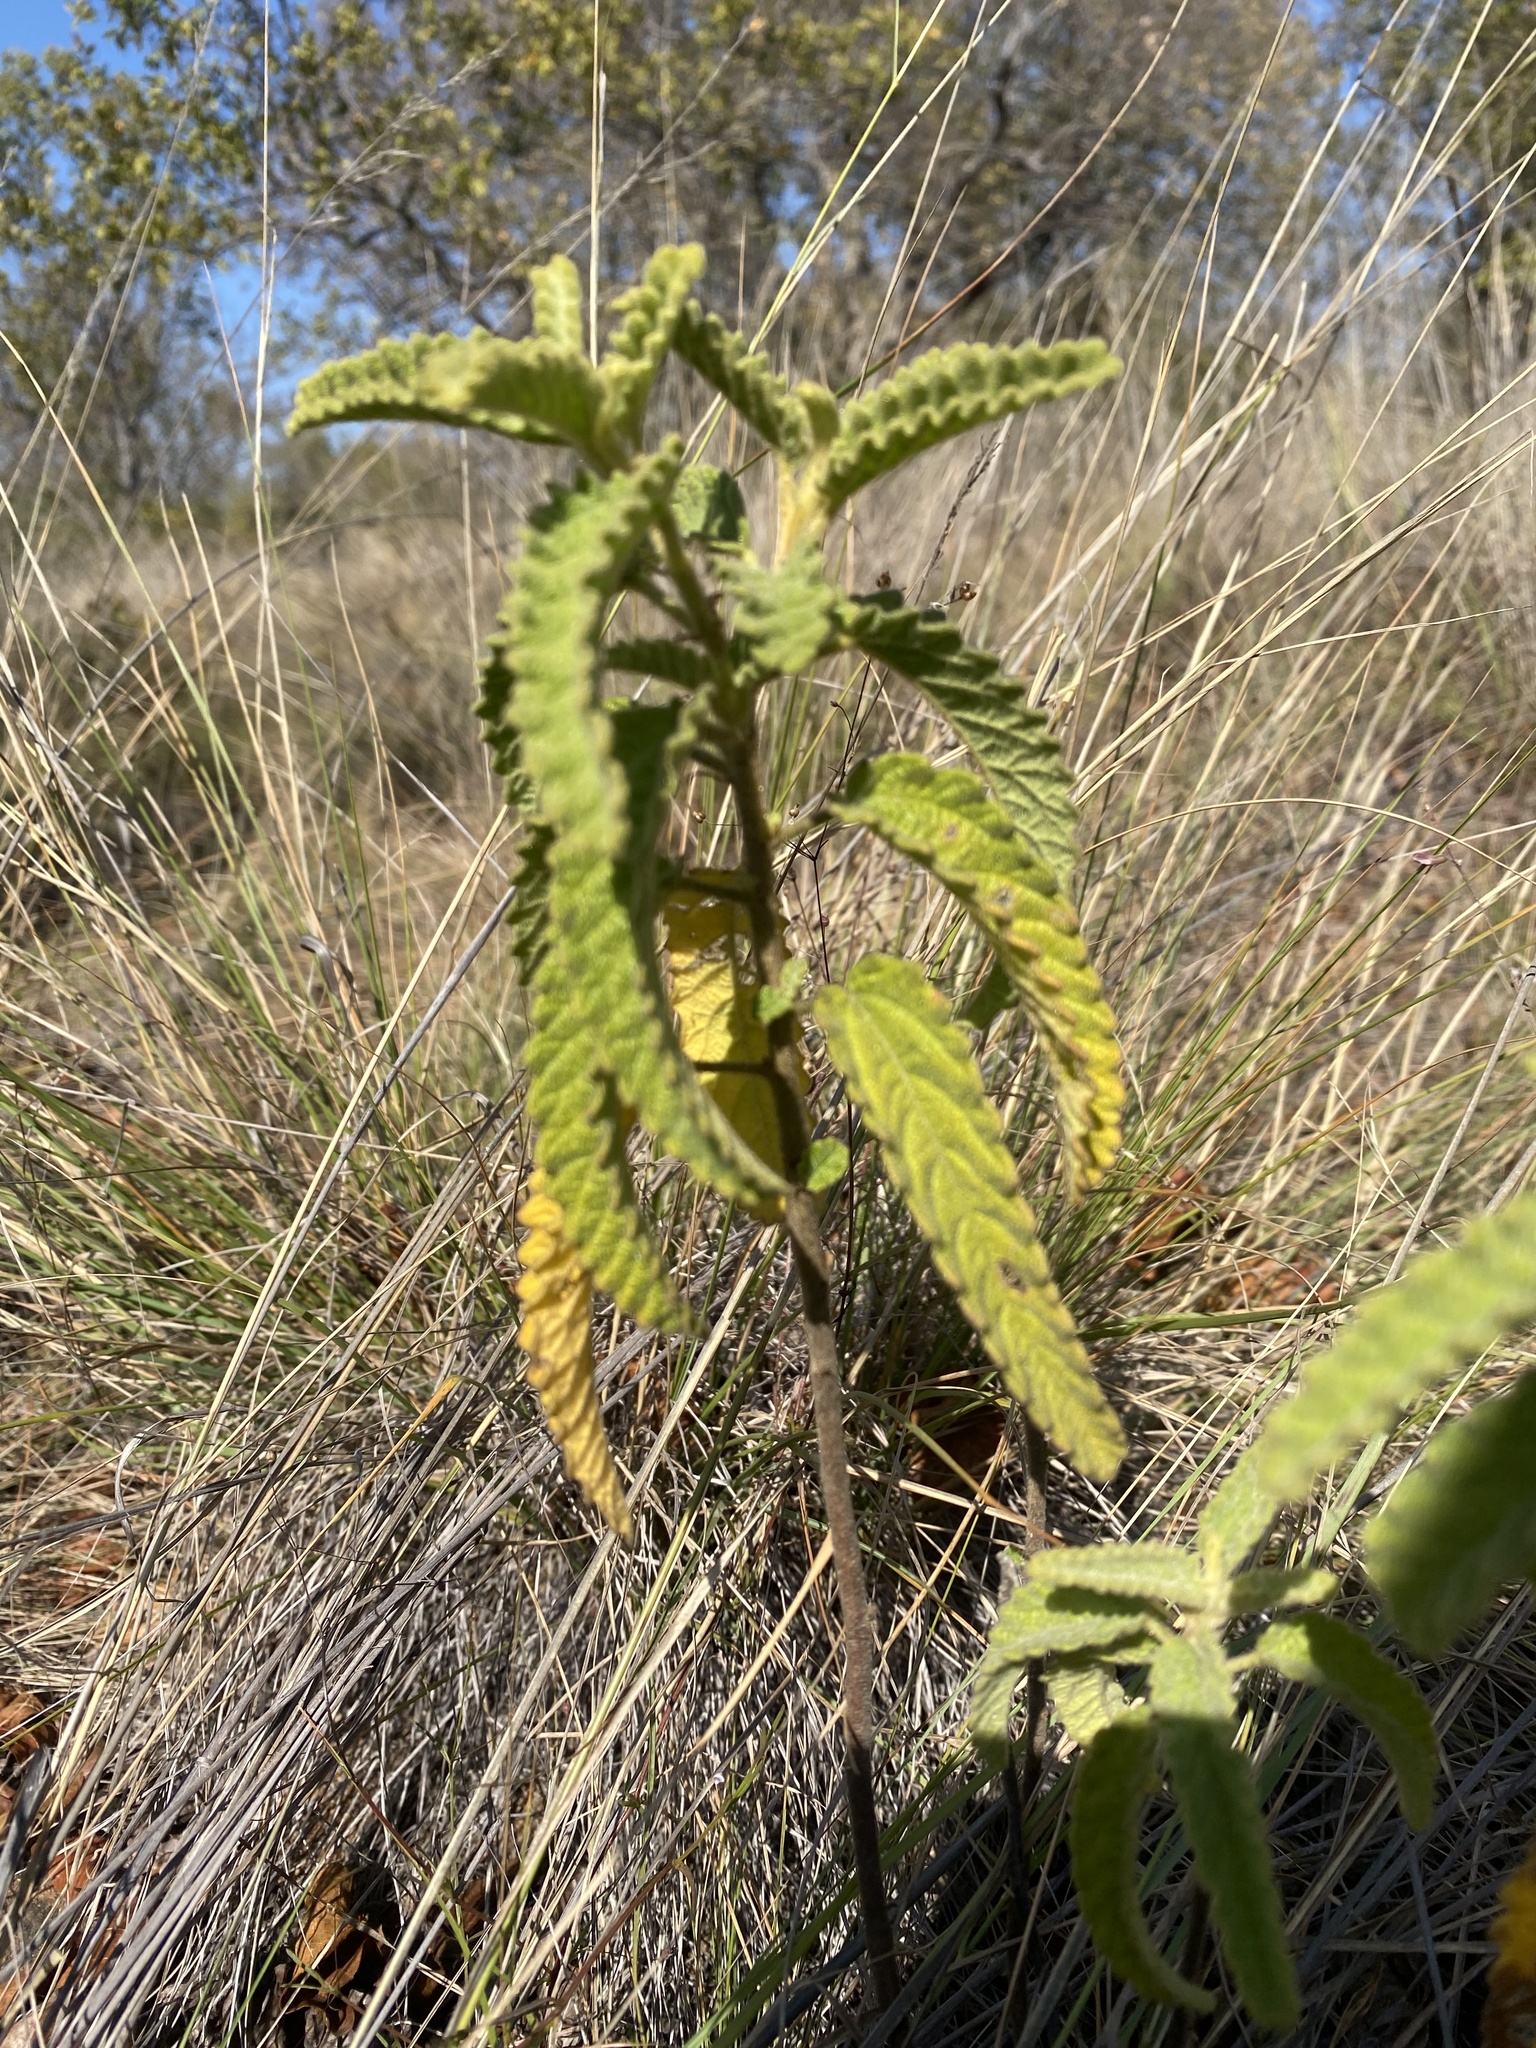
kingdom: Plantae
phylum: Tracheophyta
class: Magnoliopsida
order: Malvales
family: Malvaceae
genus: Corchorus
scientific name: Corchorus kirkii
